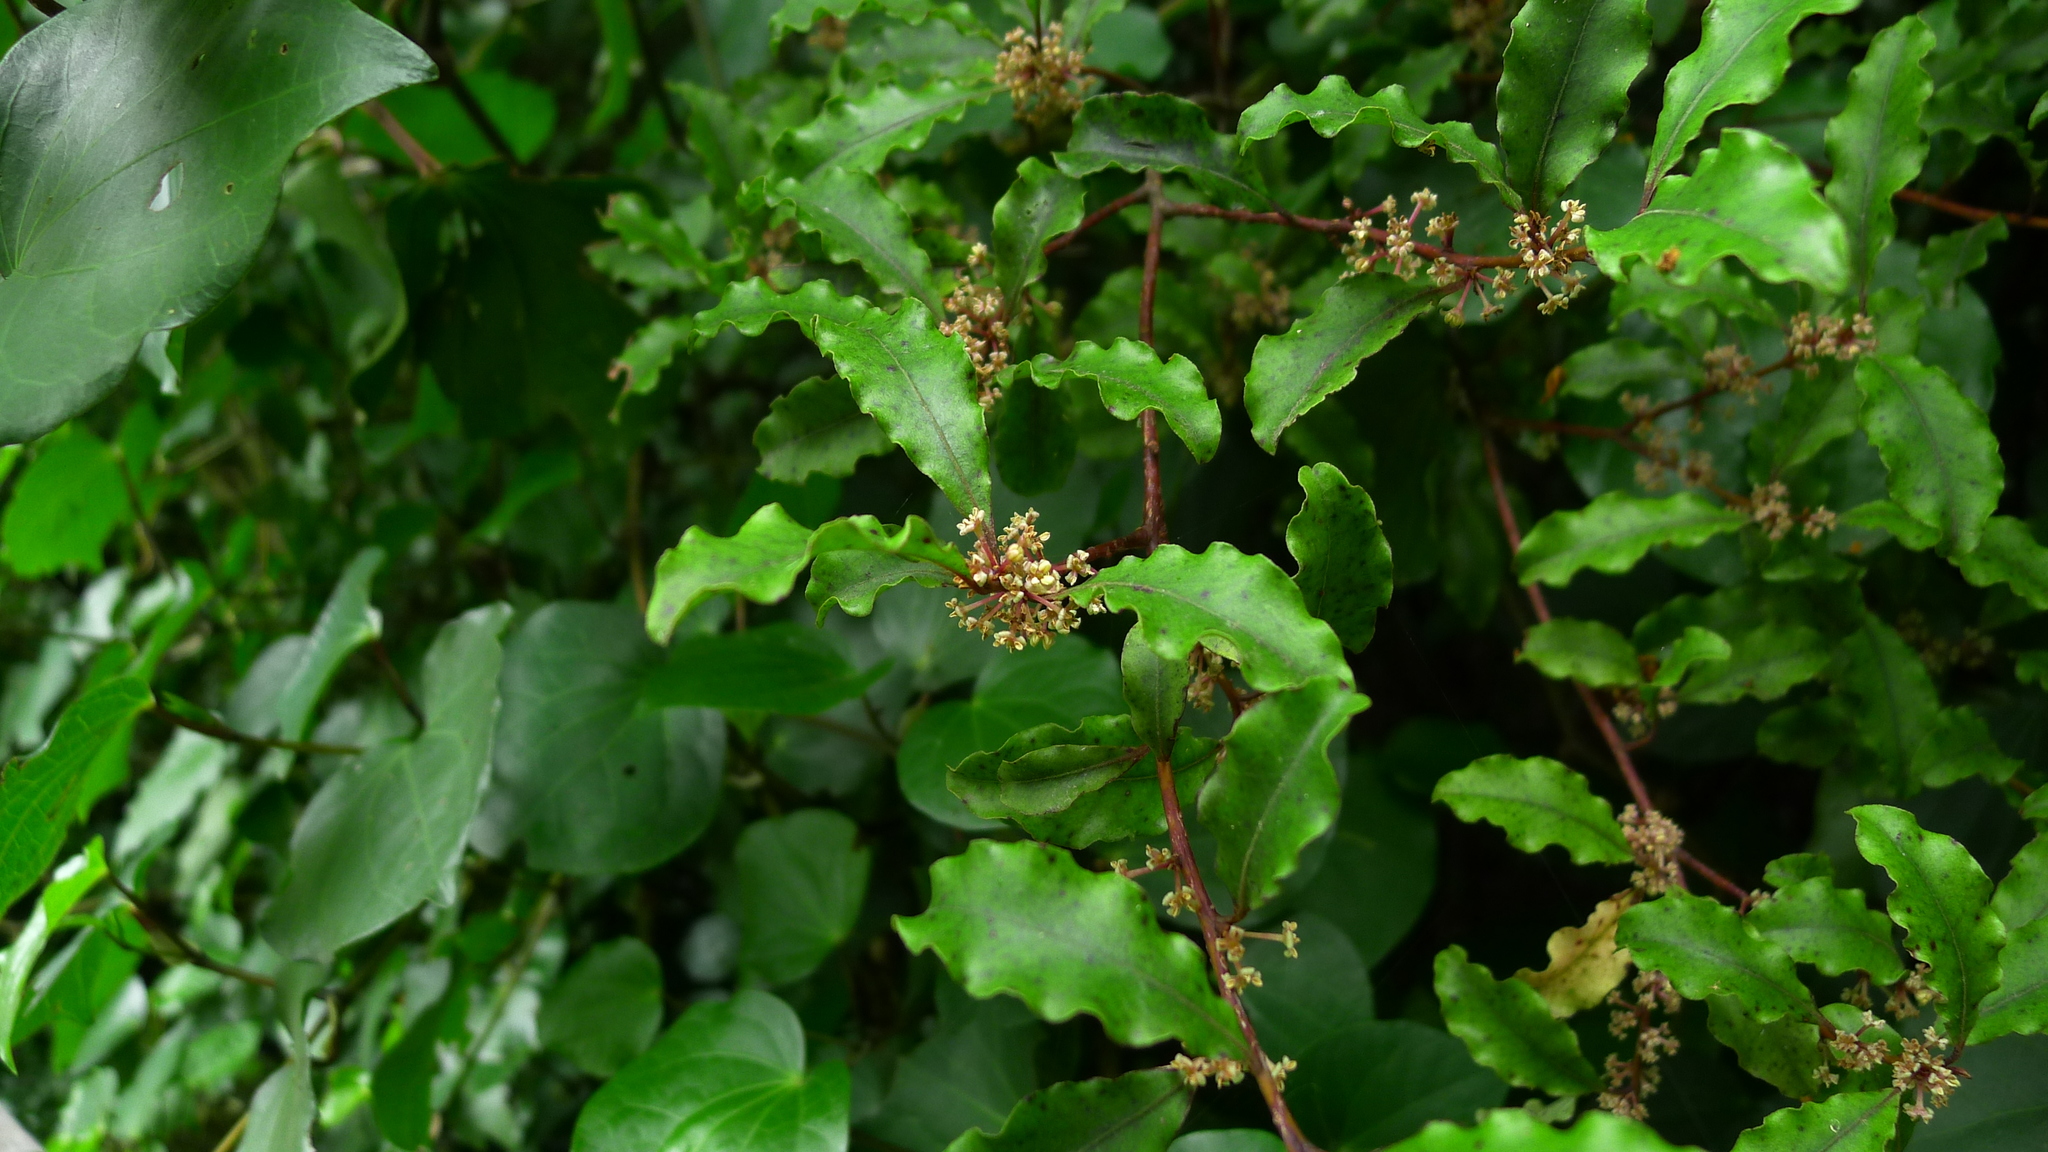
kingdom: Plantae
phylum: Tracheophyta
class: Magnoliopsida
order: Ericales
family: Primulaceae
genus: Myrsine
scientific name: Myrsine australis
